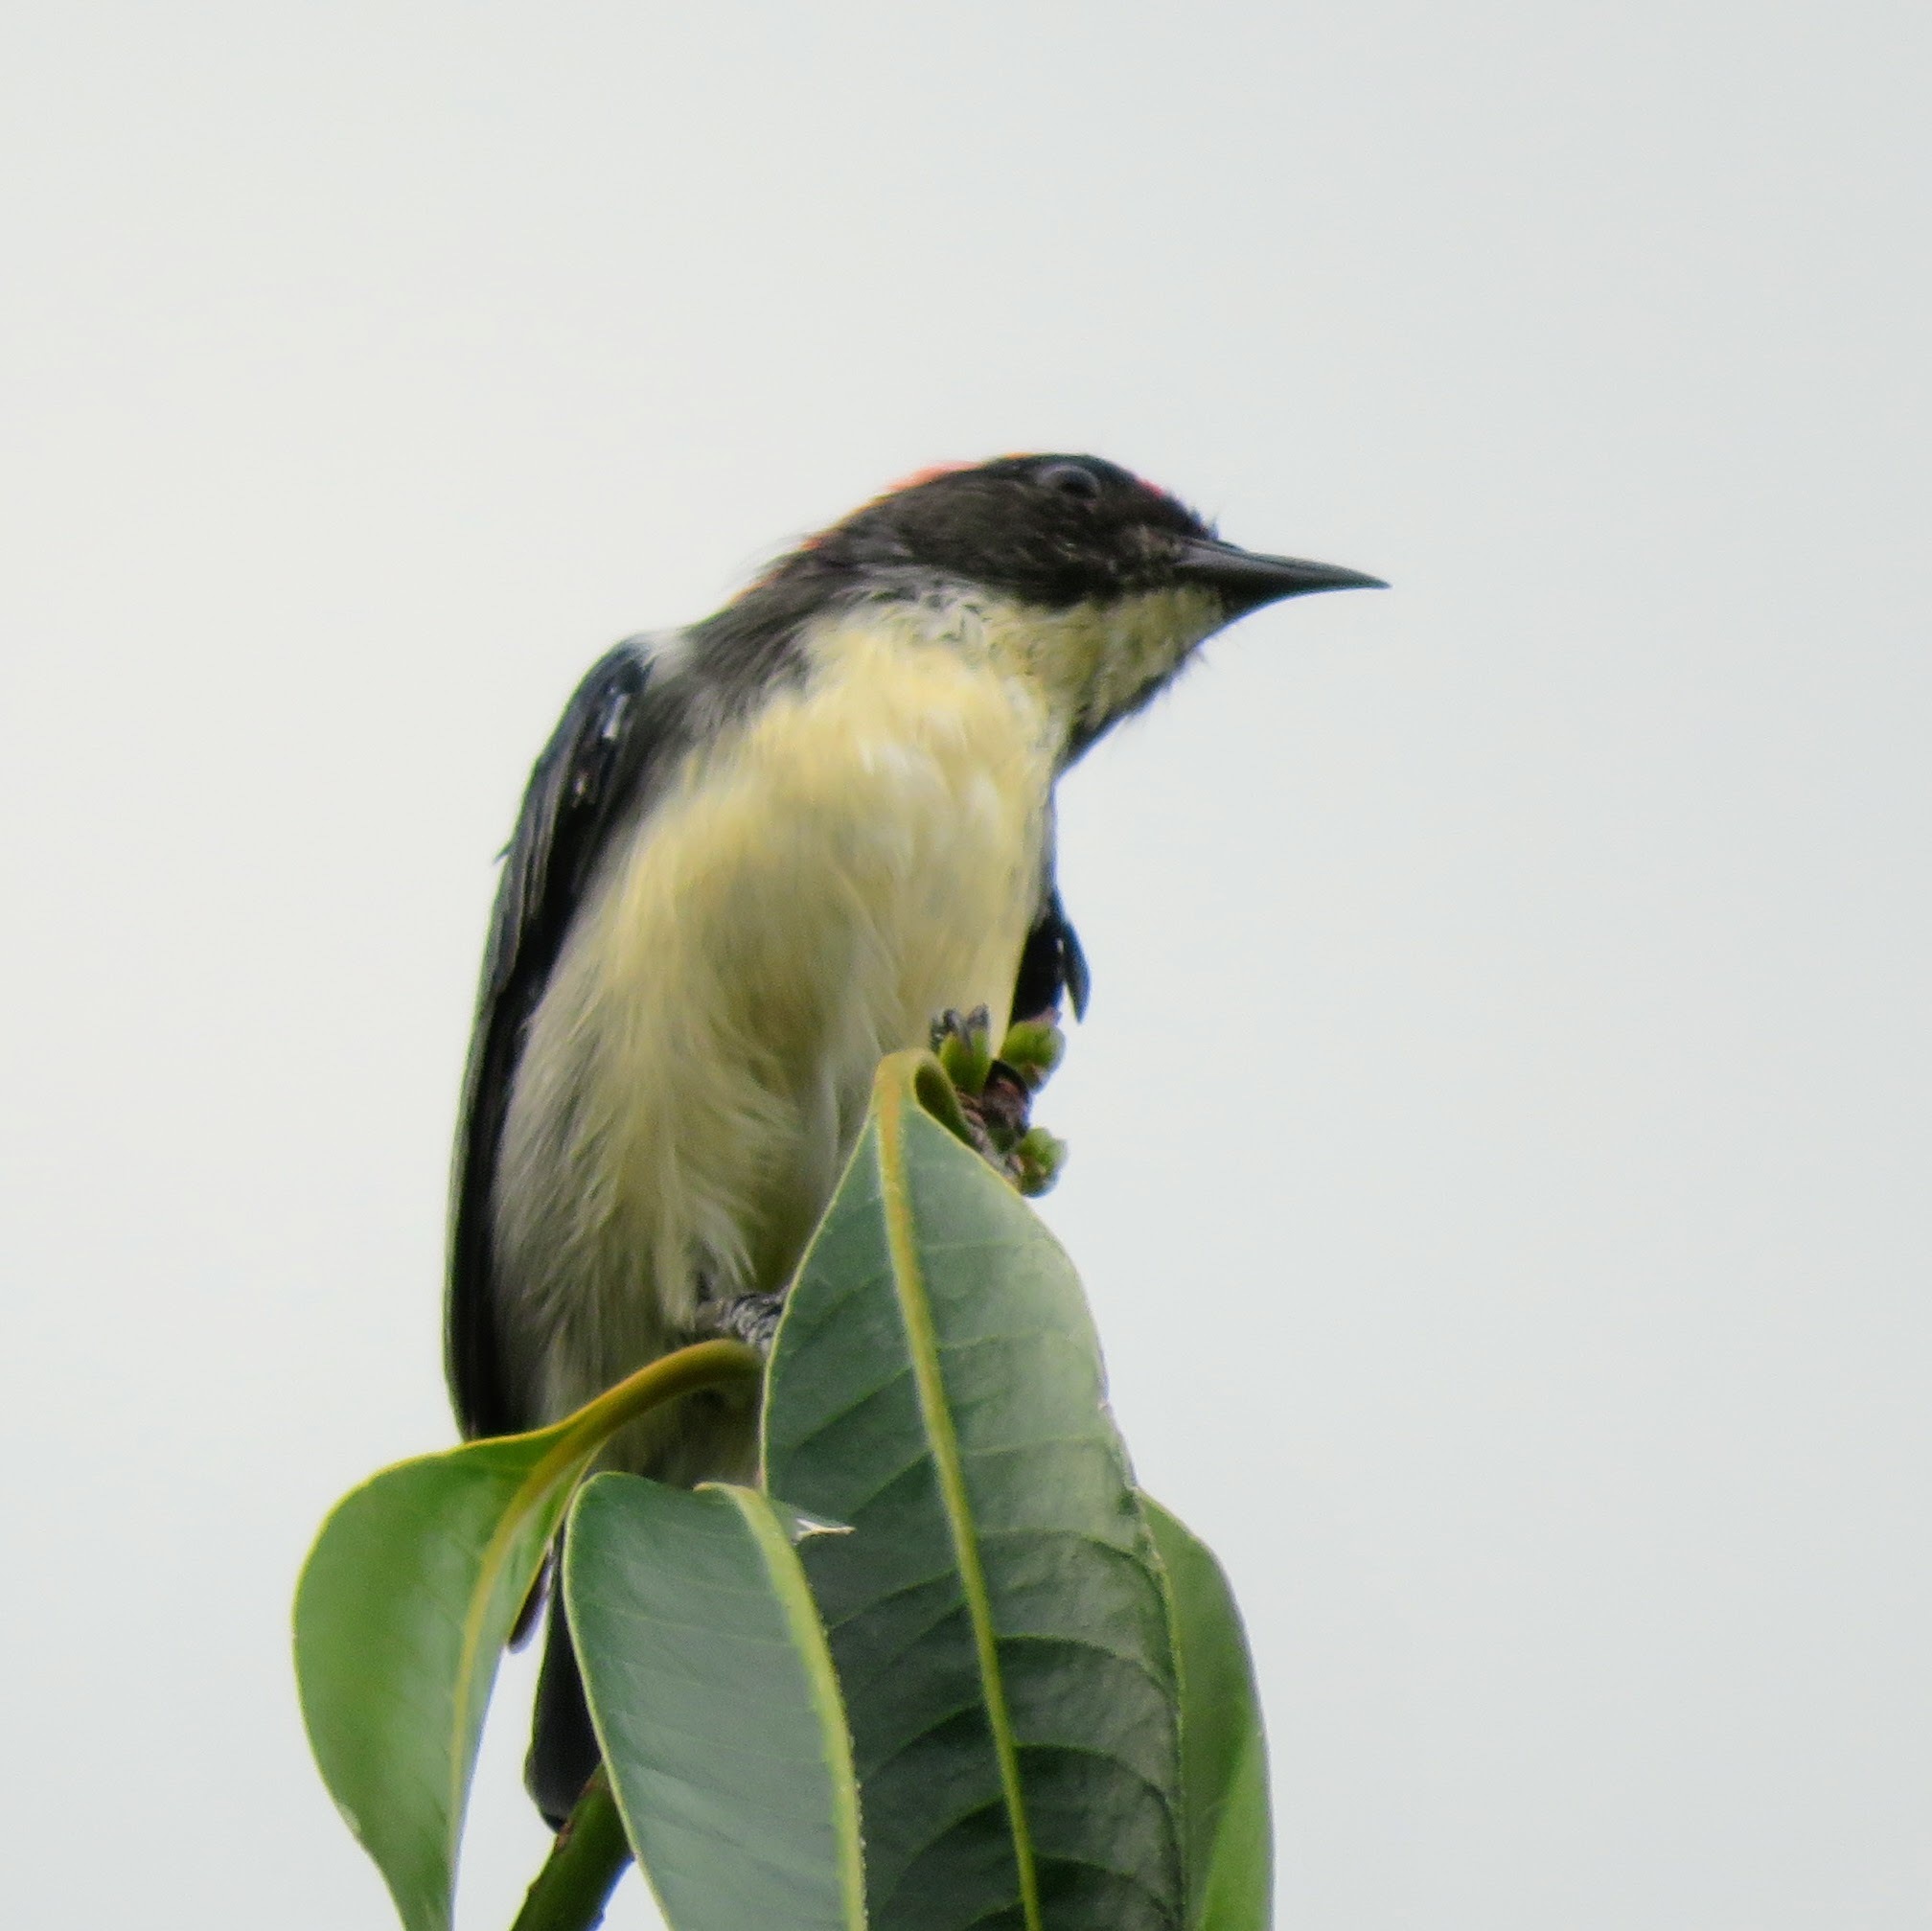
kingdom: Animalia
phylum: Chordata
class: Aves
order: Passeriformes
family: Dicaeidae
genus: Dicaeum
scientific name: Dicaeum cruentatum
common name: Scarlet-backed flowerpecker
